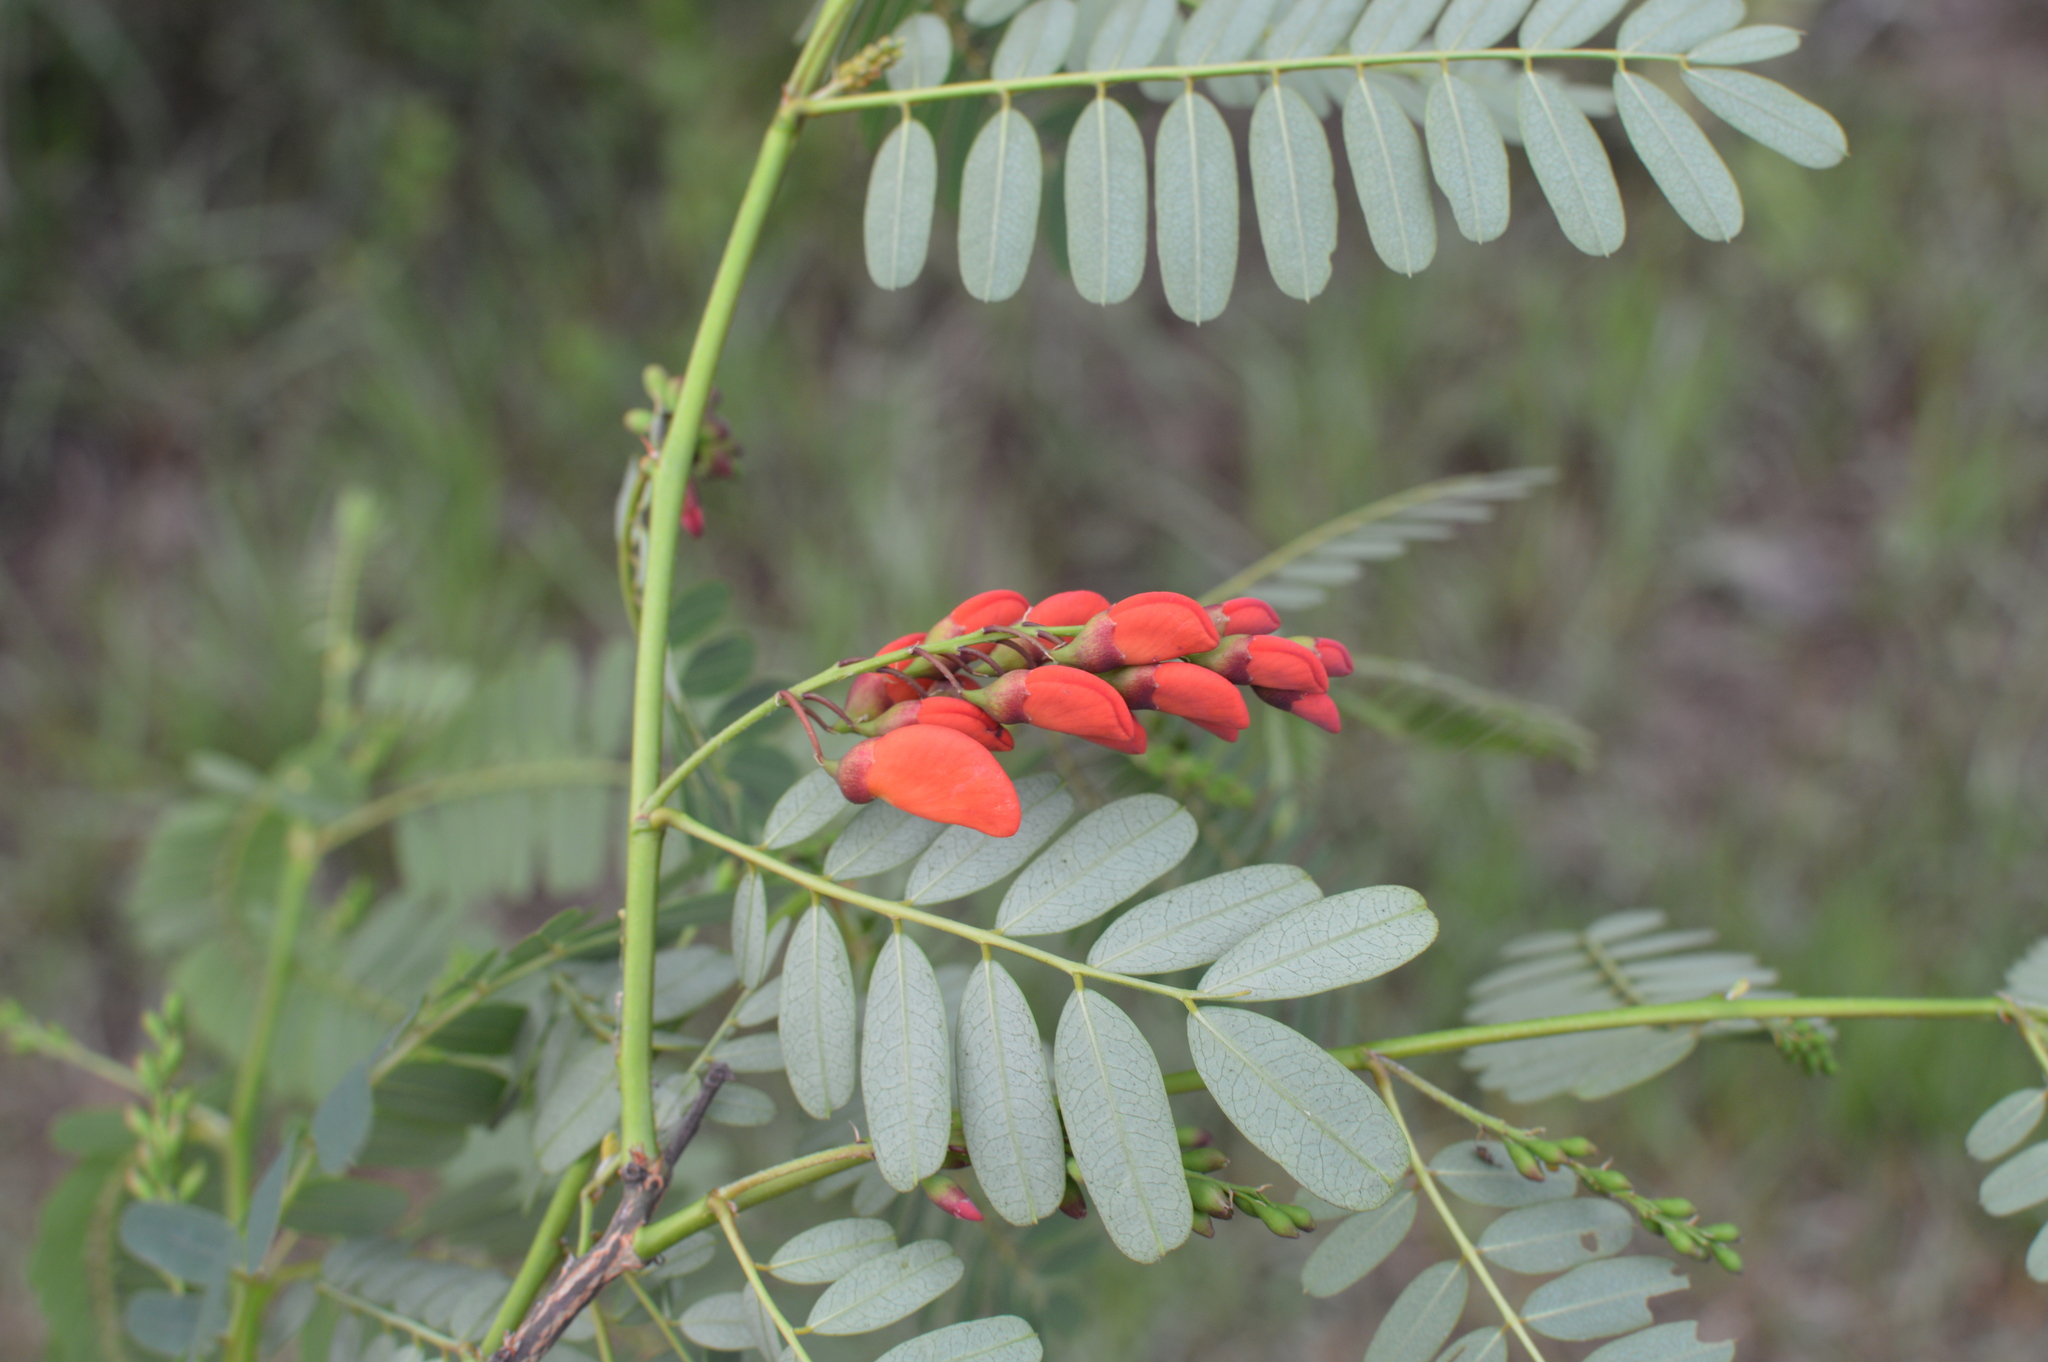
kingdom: Plantae
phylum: Tracheophyta
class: Magnoliopsida
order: Fabales
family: Fabaceae
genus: Sesbania
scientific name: Sesbania punicea
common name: Rattlebox
